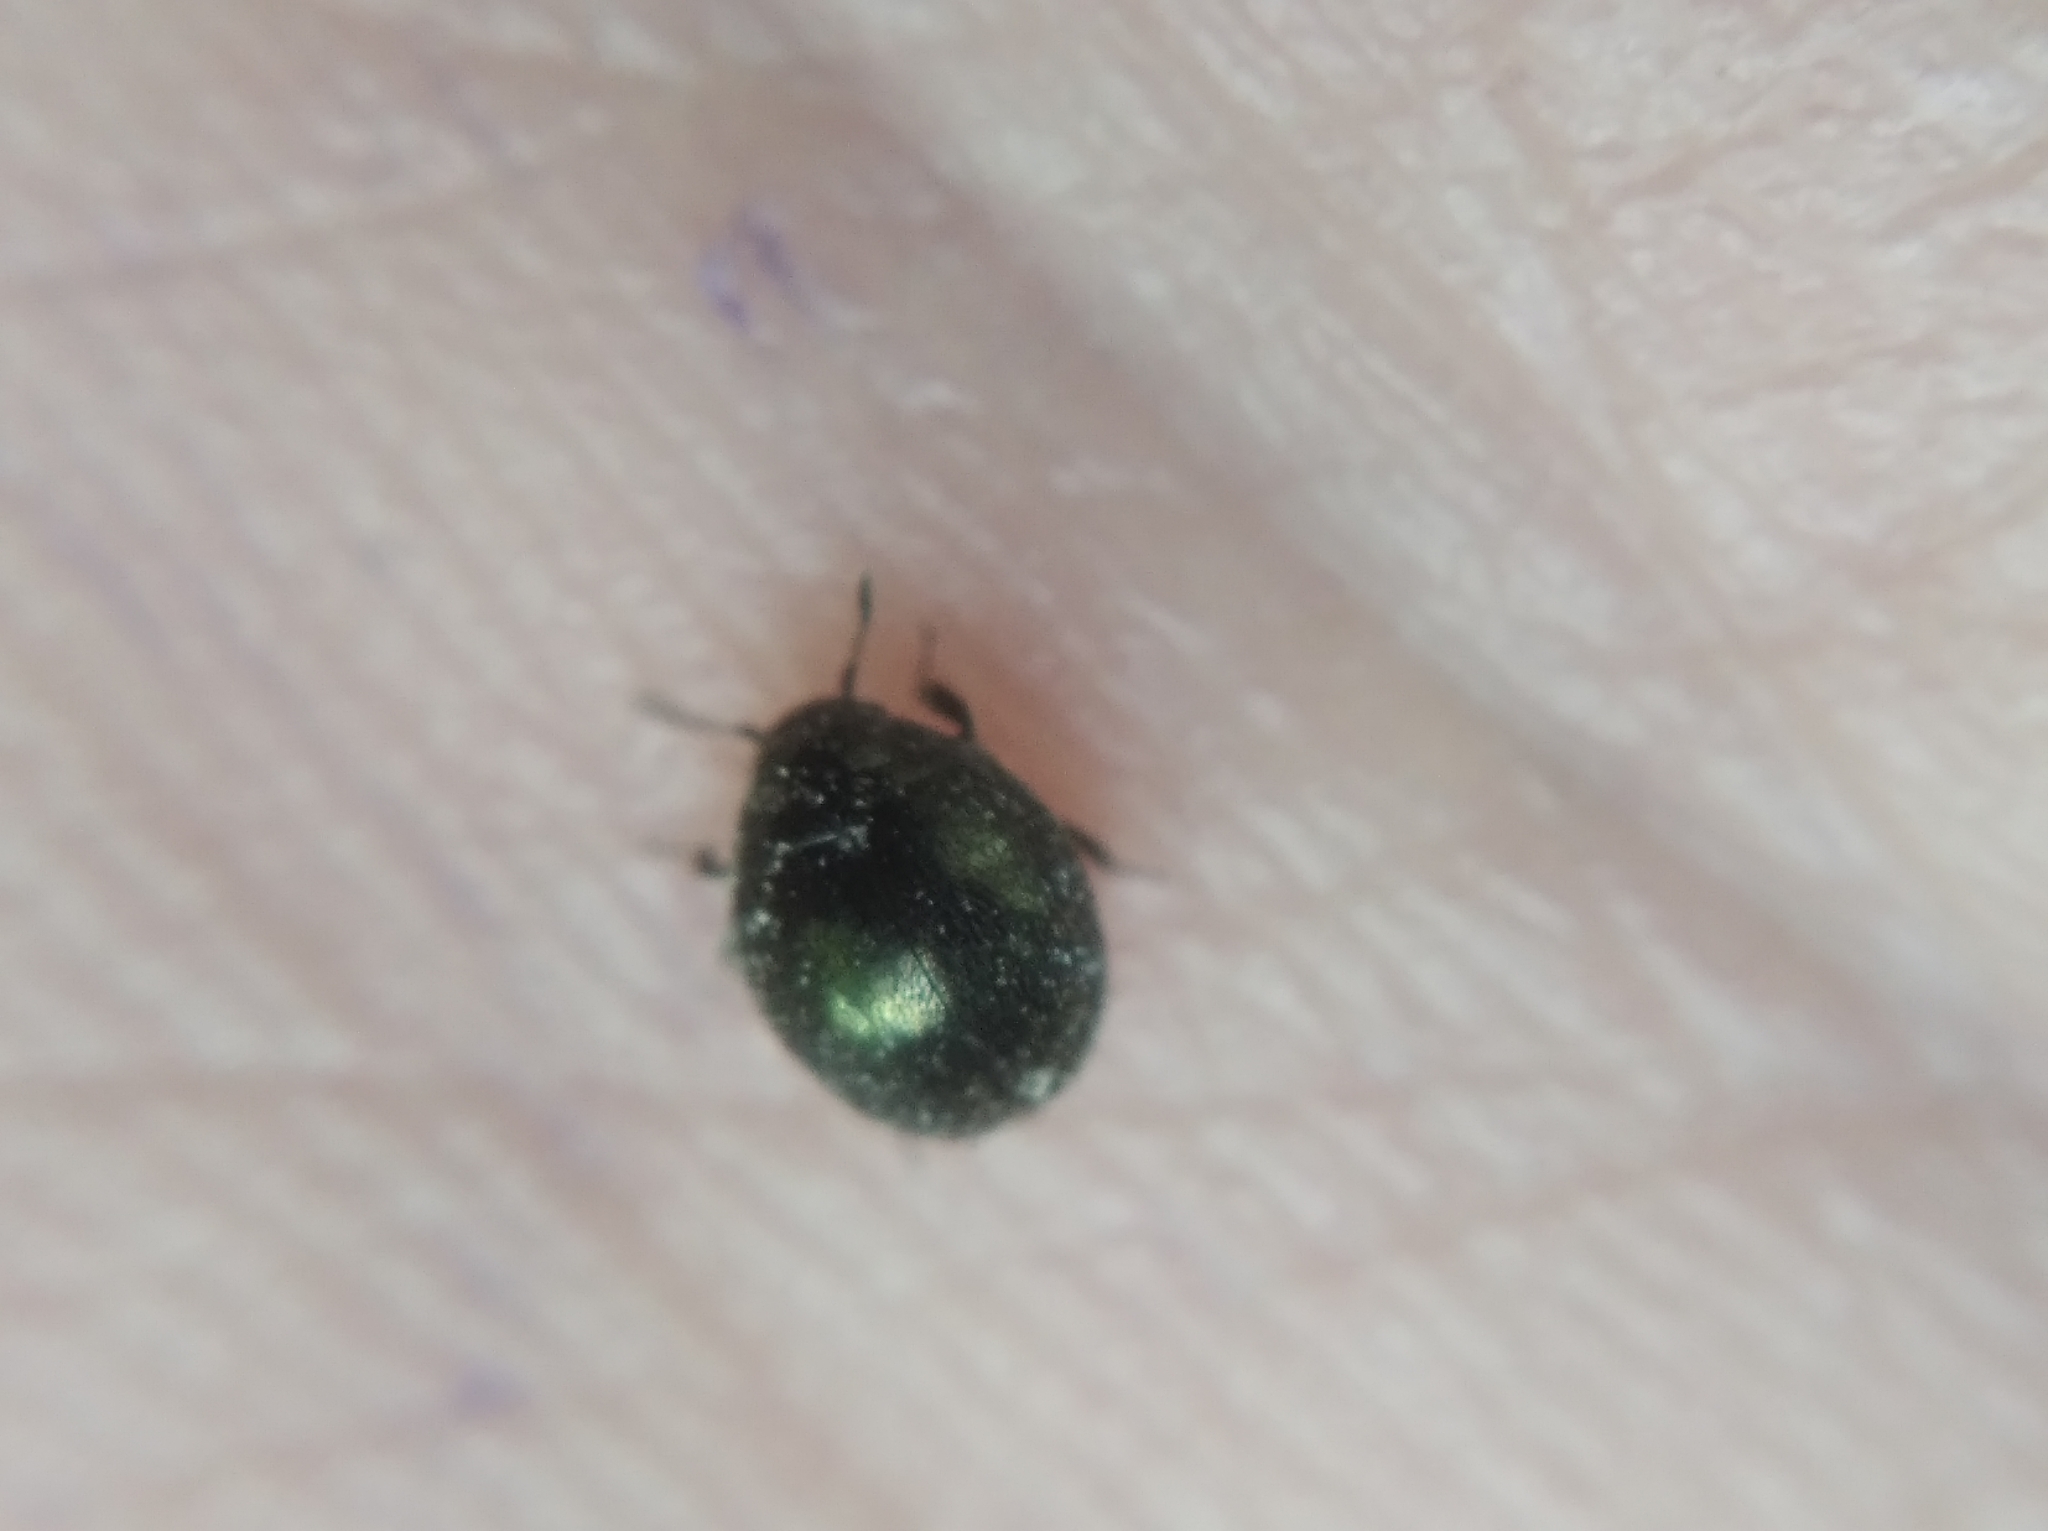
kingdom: Animalia
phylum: Arthropoda
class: Insecta
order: Coleoptera
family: Byrrhidae
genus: Lamprobyrrhulus
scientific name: Lamprobyrrhulus nitidus
